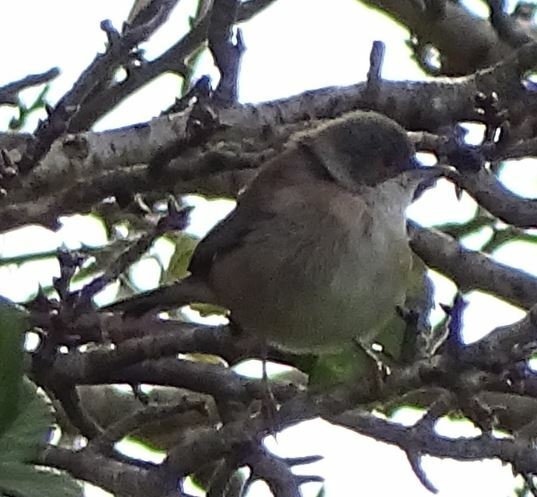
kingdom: Animalia
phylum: Chordata
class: Aves
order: Passeriformes
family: Sylviidae
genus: Curruca
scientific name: Curruca melanocephala
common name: Sardinian warbler
